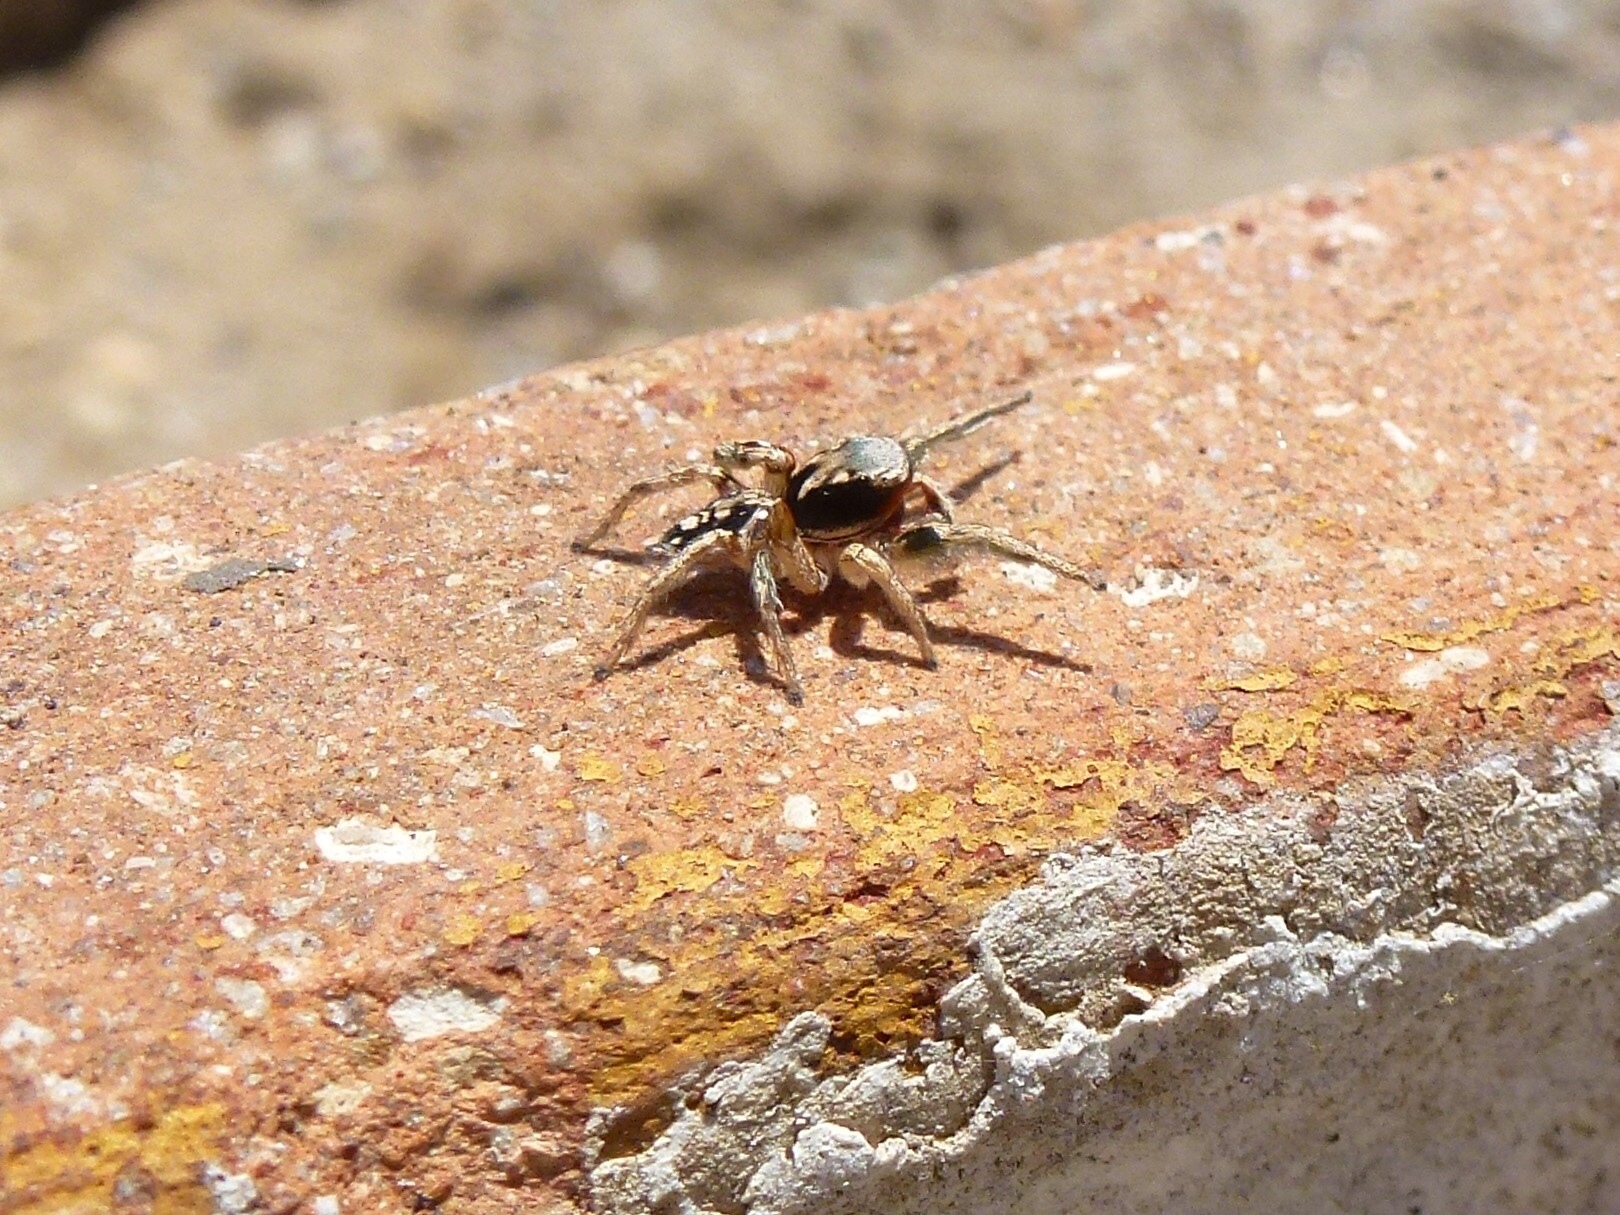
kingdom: Animalia
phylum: Arthropoda
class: Arachnida
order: Araneae
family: Salticidae
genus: Habronattus
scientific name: Habronattus pyrrithrix
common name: Jumping spider
